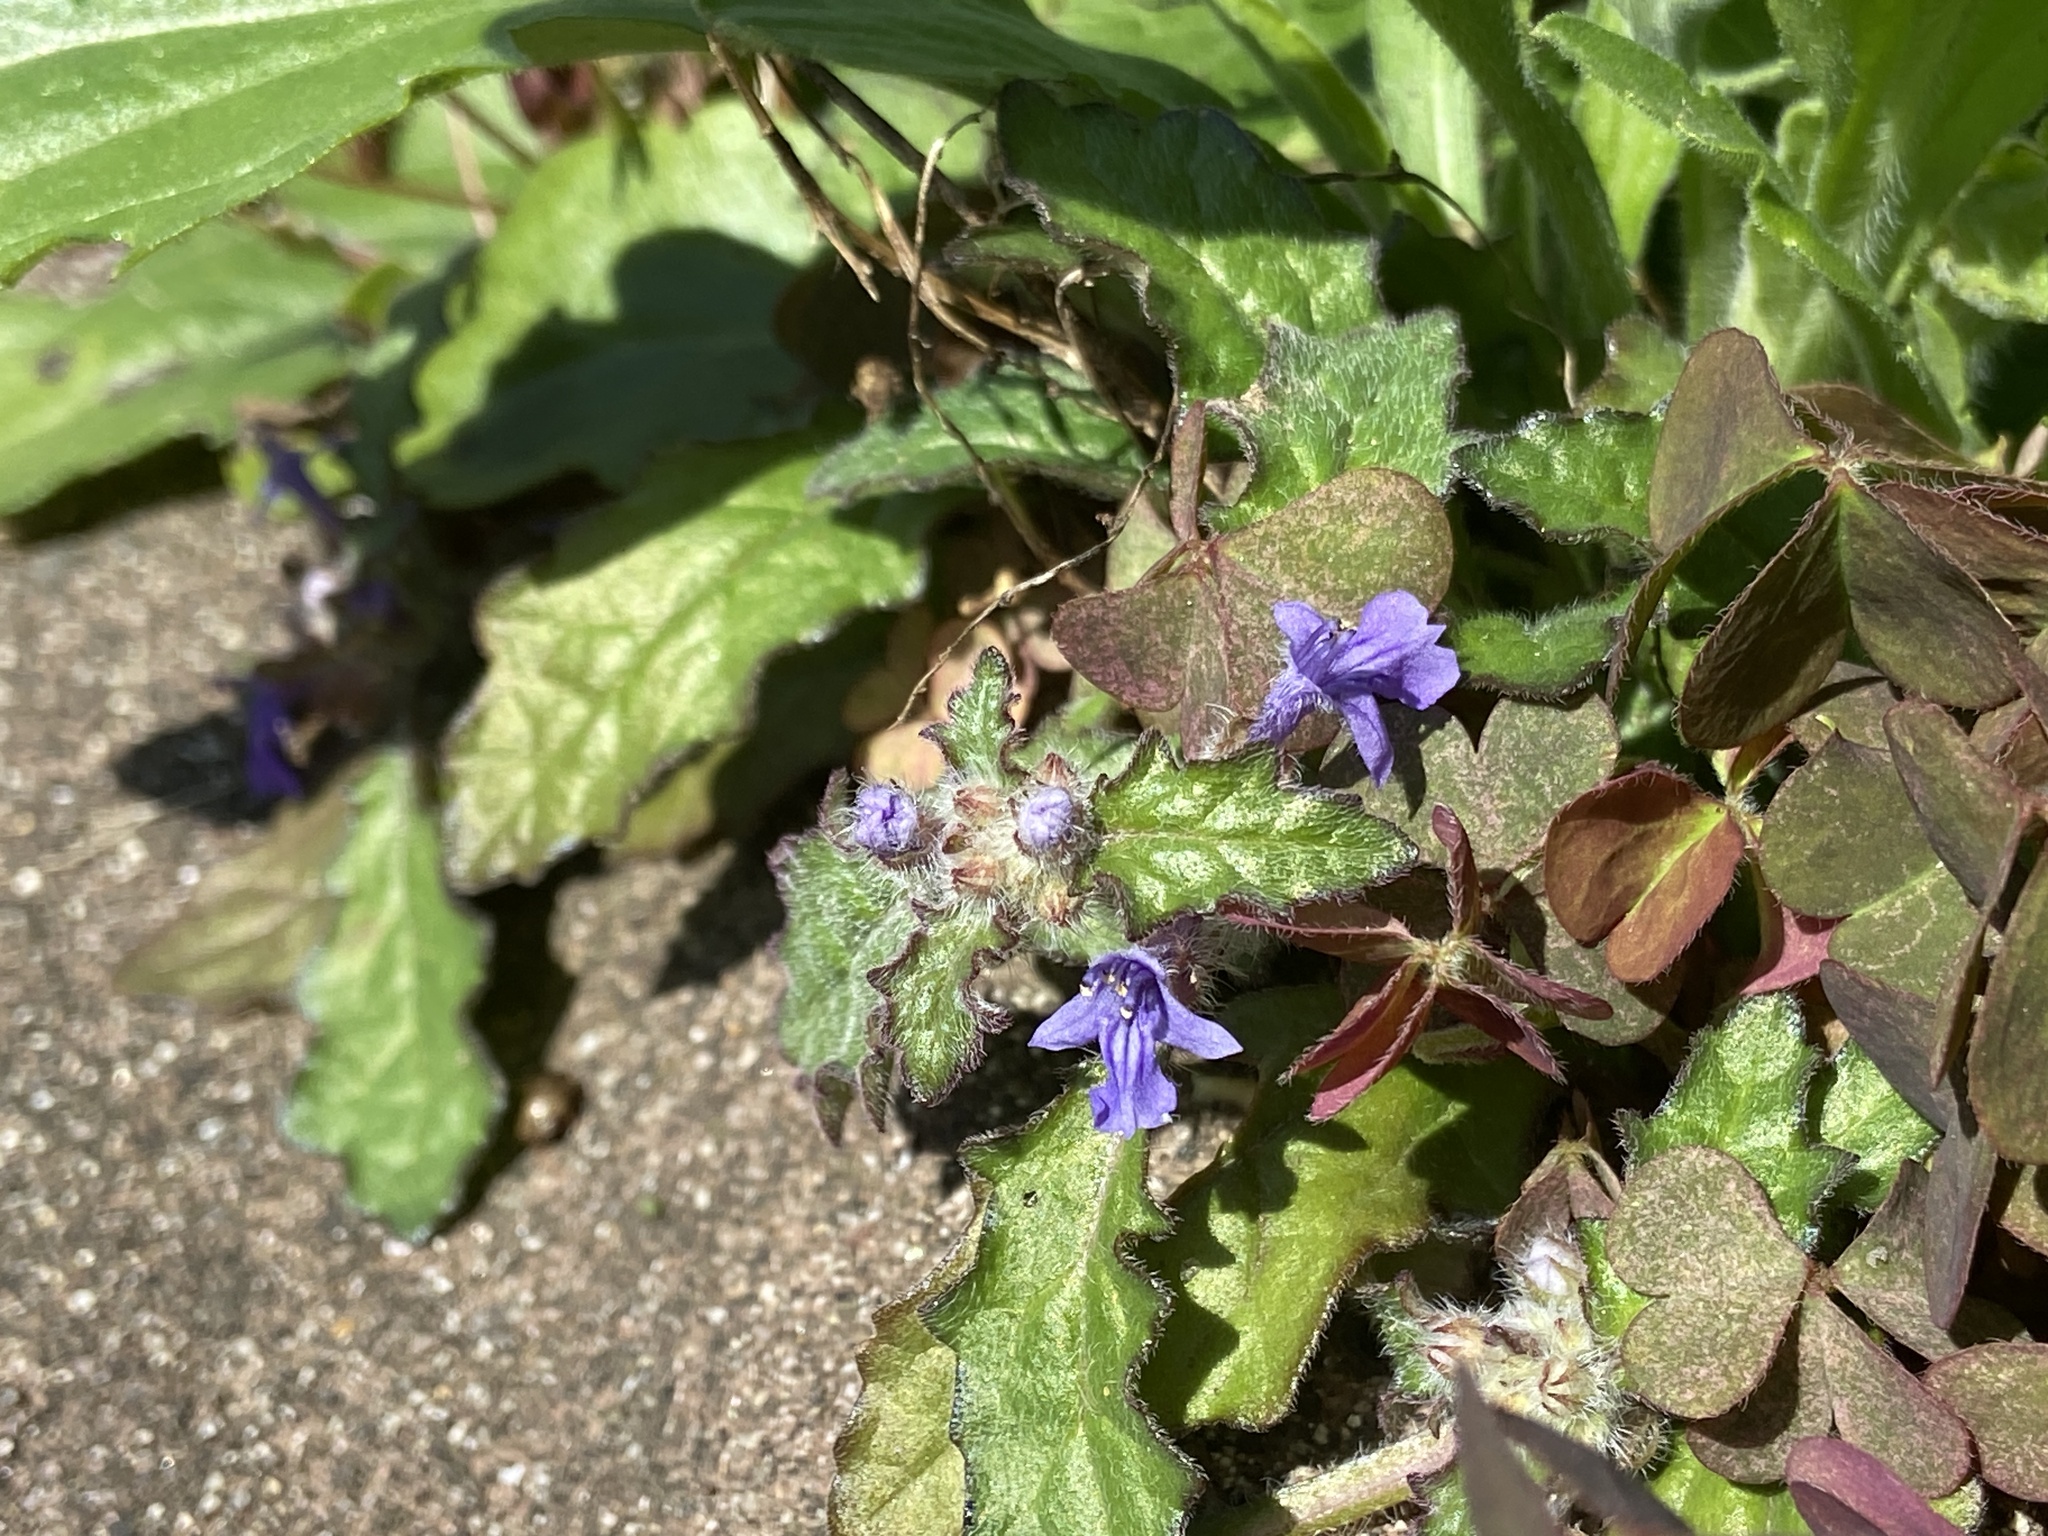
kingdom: Plantae
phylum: Tracheophyta
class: Magnoliopsida
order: Lamiales
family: Lamiaceae
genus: Ajuga
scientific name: Ajuga decumbens
